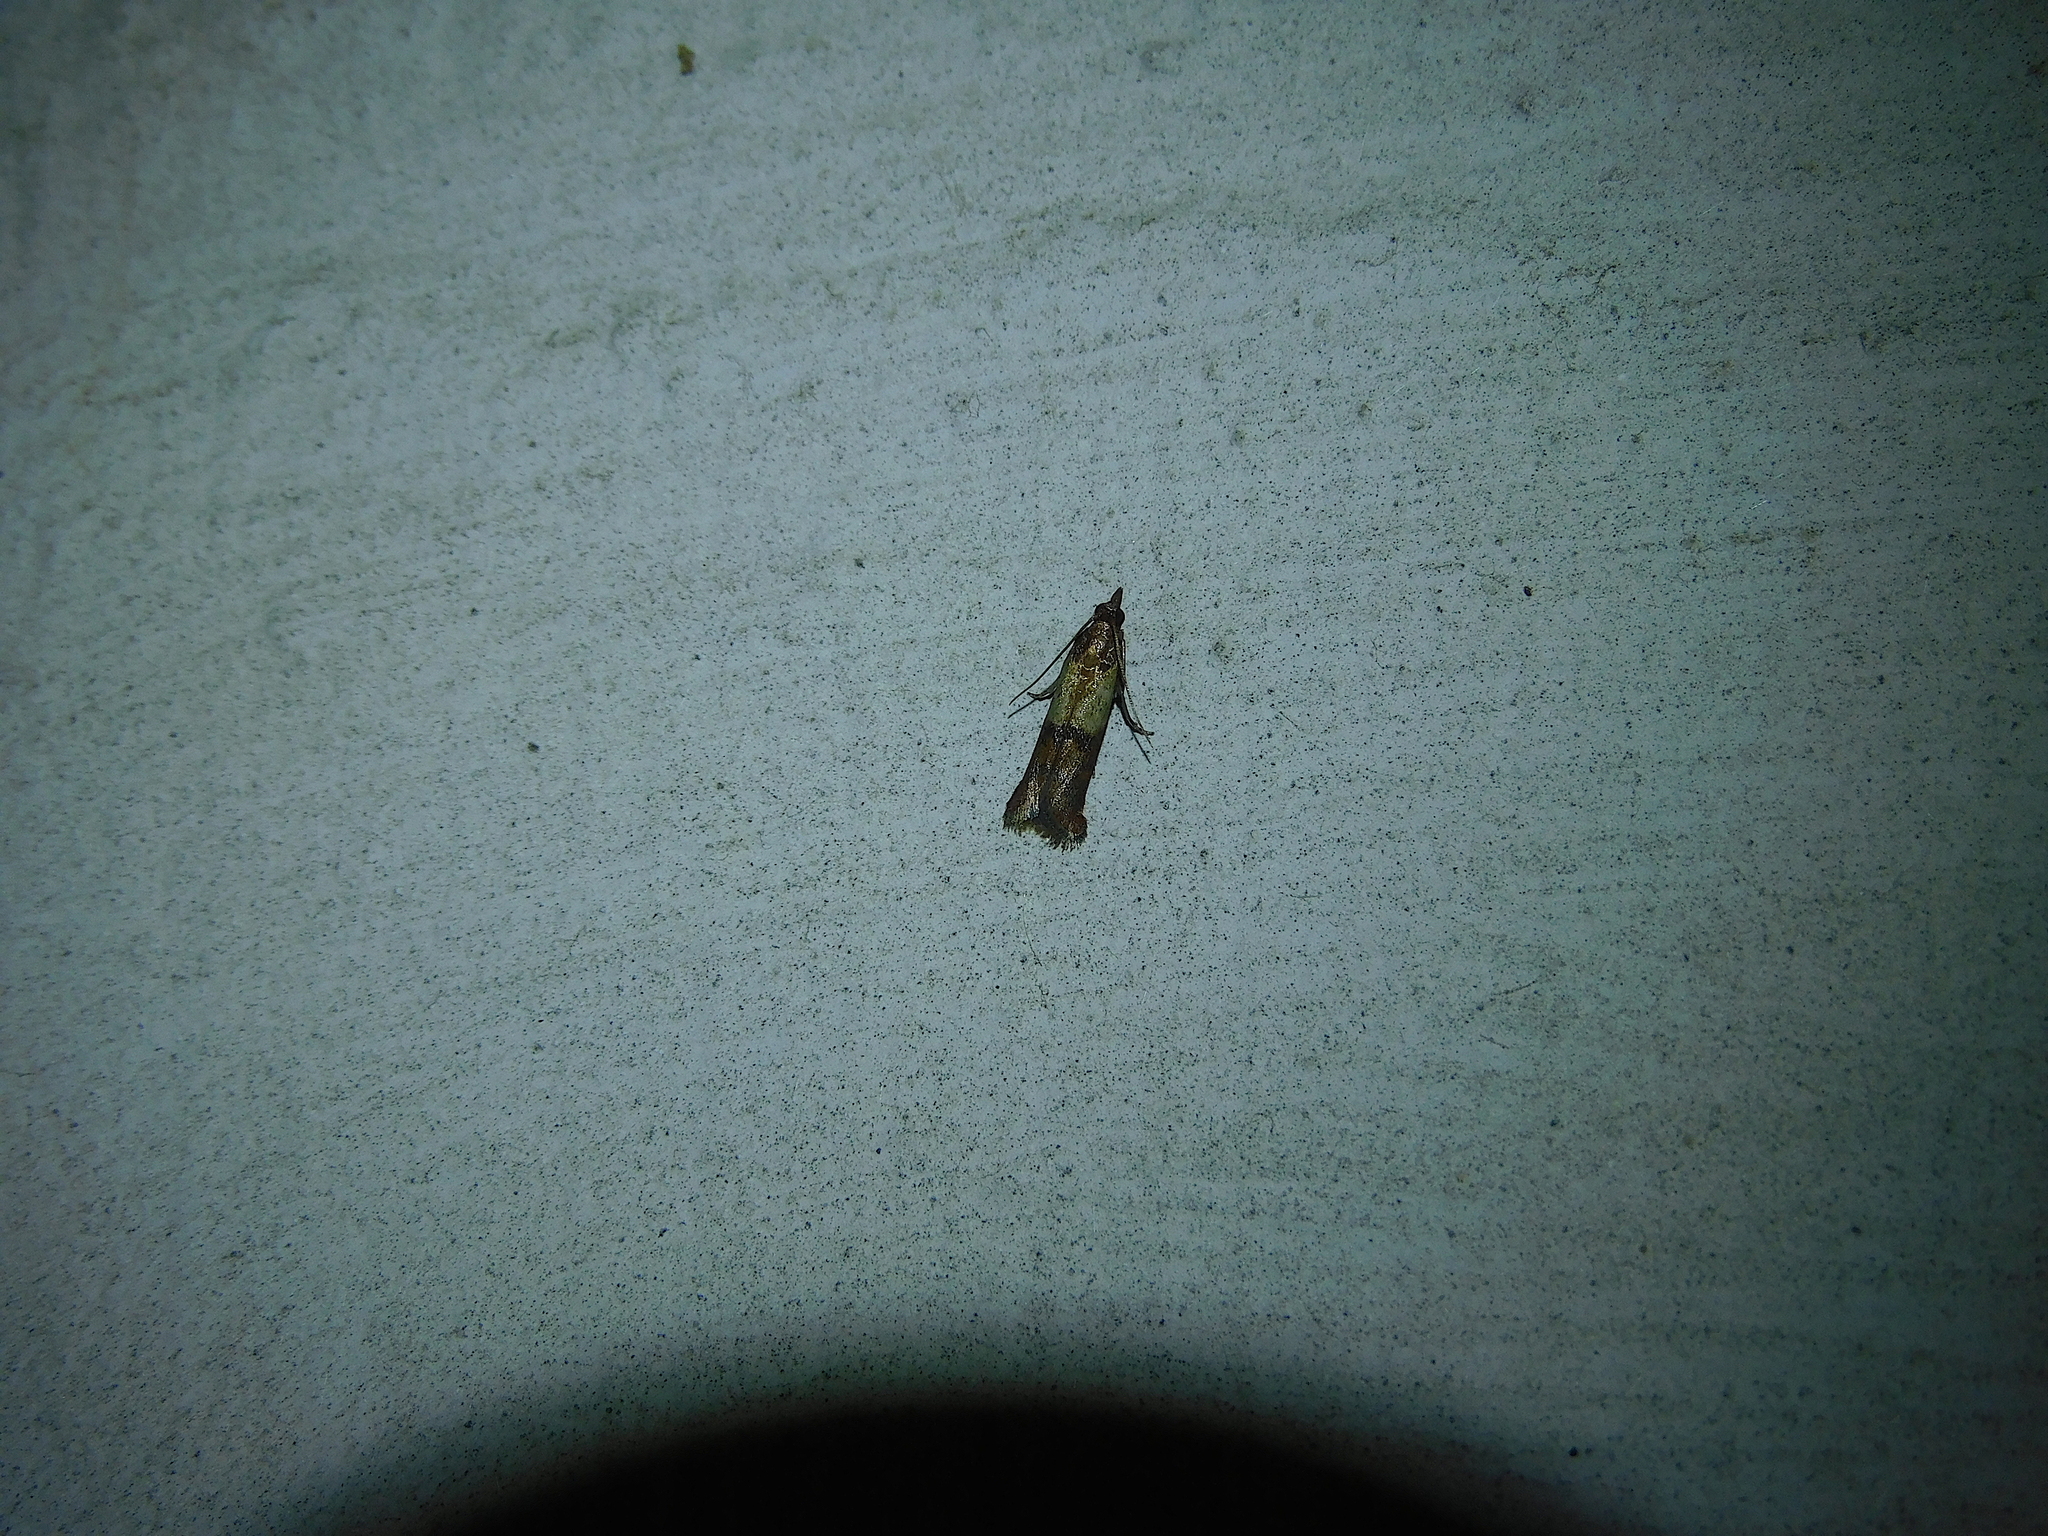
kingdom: Animalia
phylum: Arthropoda
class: Insecta
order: Lepidoptera
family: Pyralidae
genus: Plodia
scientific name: Plodia interpunctella
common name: Indian meal moth
